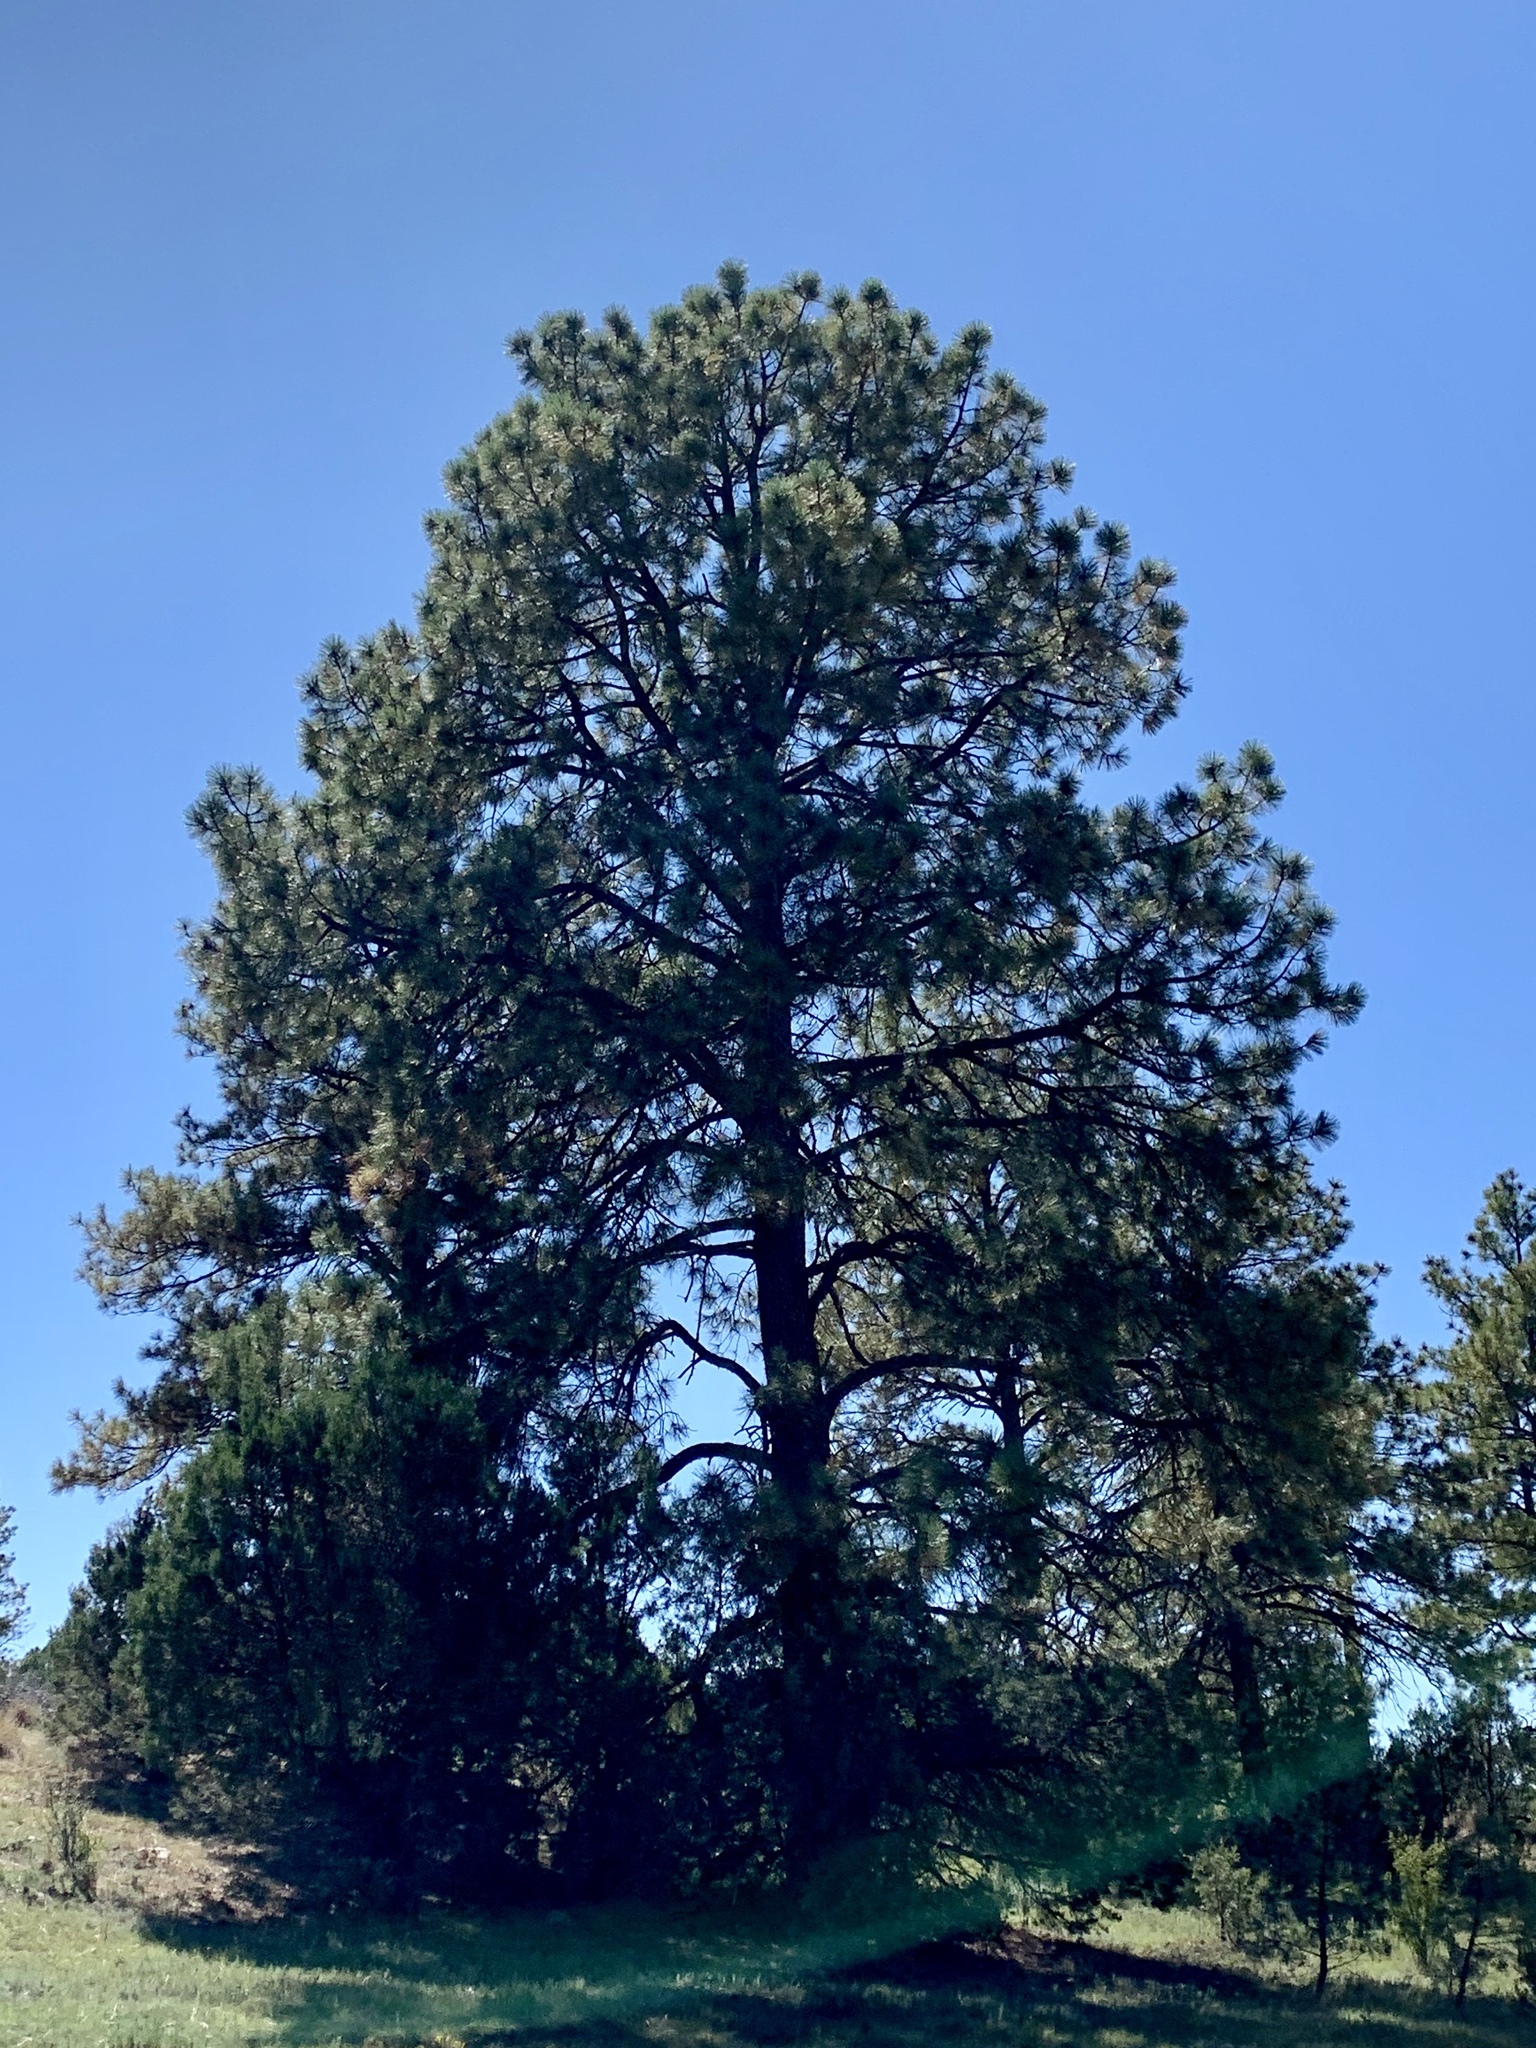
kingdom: Plantae
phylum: Tracheophyta
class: Pinopsida
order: Pinales
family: Pinaceae
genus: Pinus
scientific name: Pinus ponderosa
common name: Western yellow-pine
